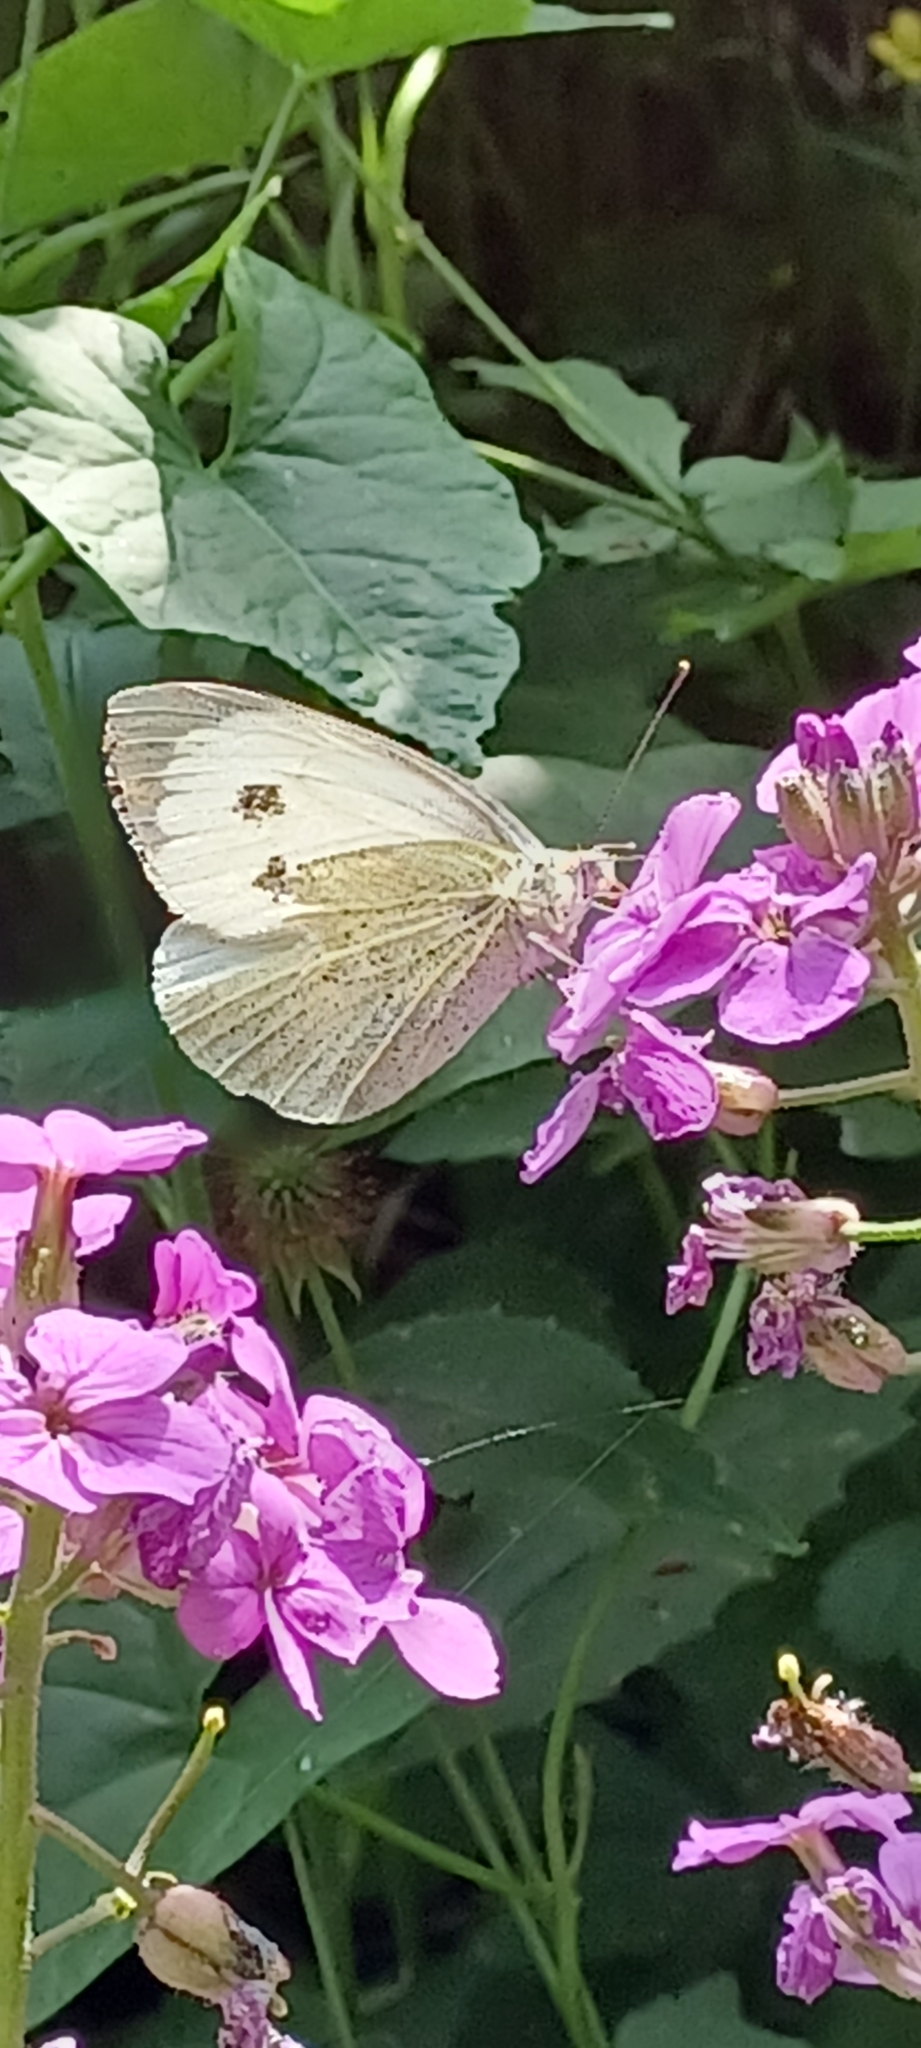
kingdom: Animalia
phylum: Arthropoda
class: Insecta
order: Lepidoptera
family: Pieridae
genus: Pieris
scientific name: Pieris brassicae
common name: Large white
